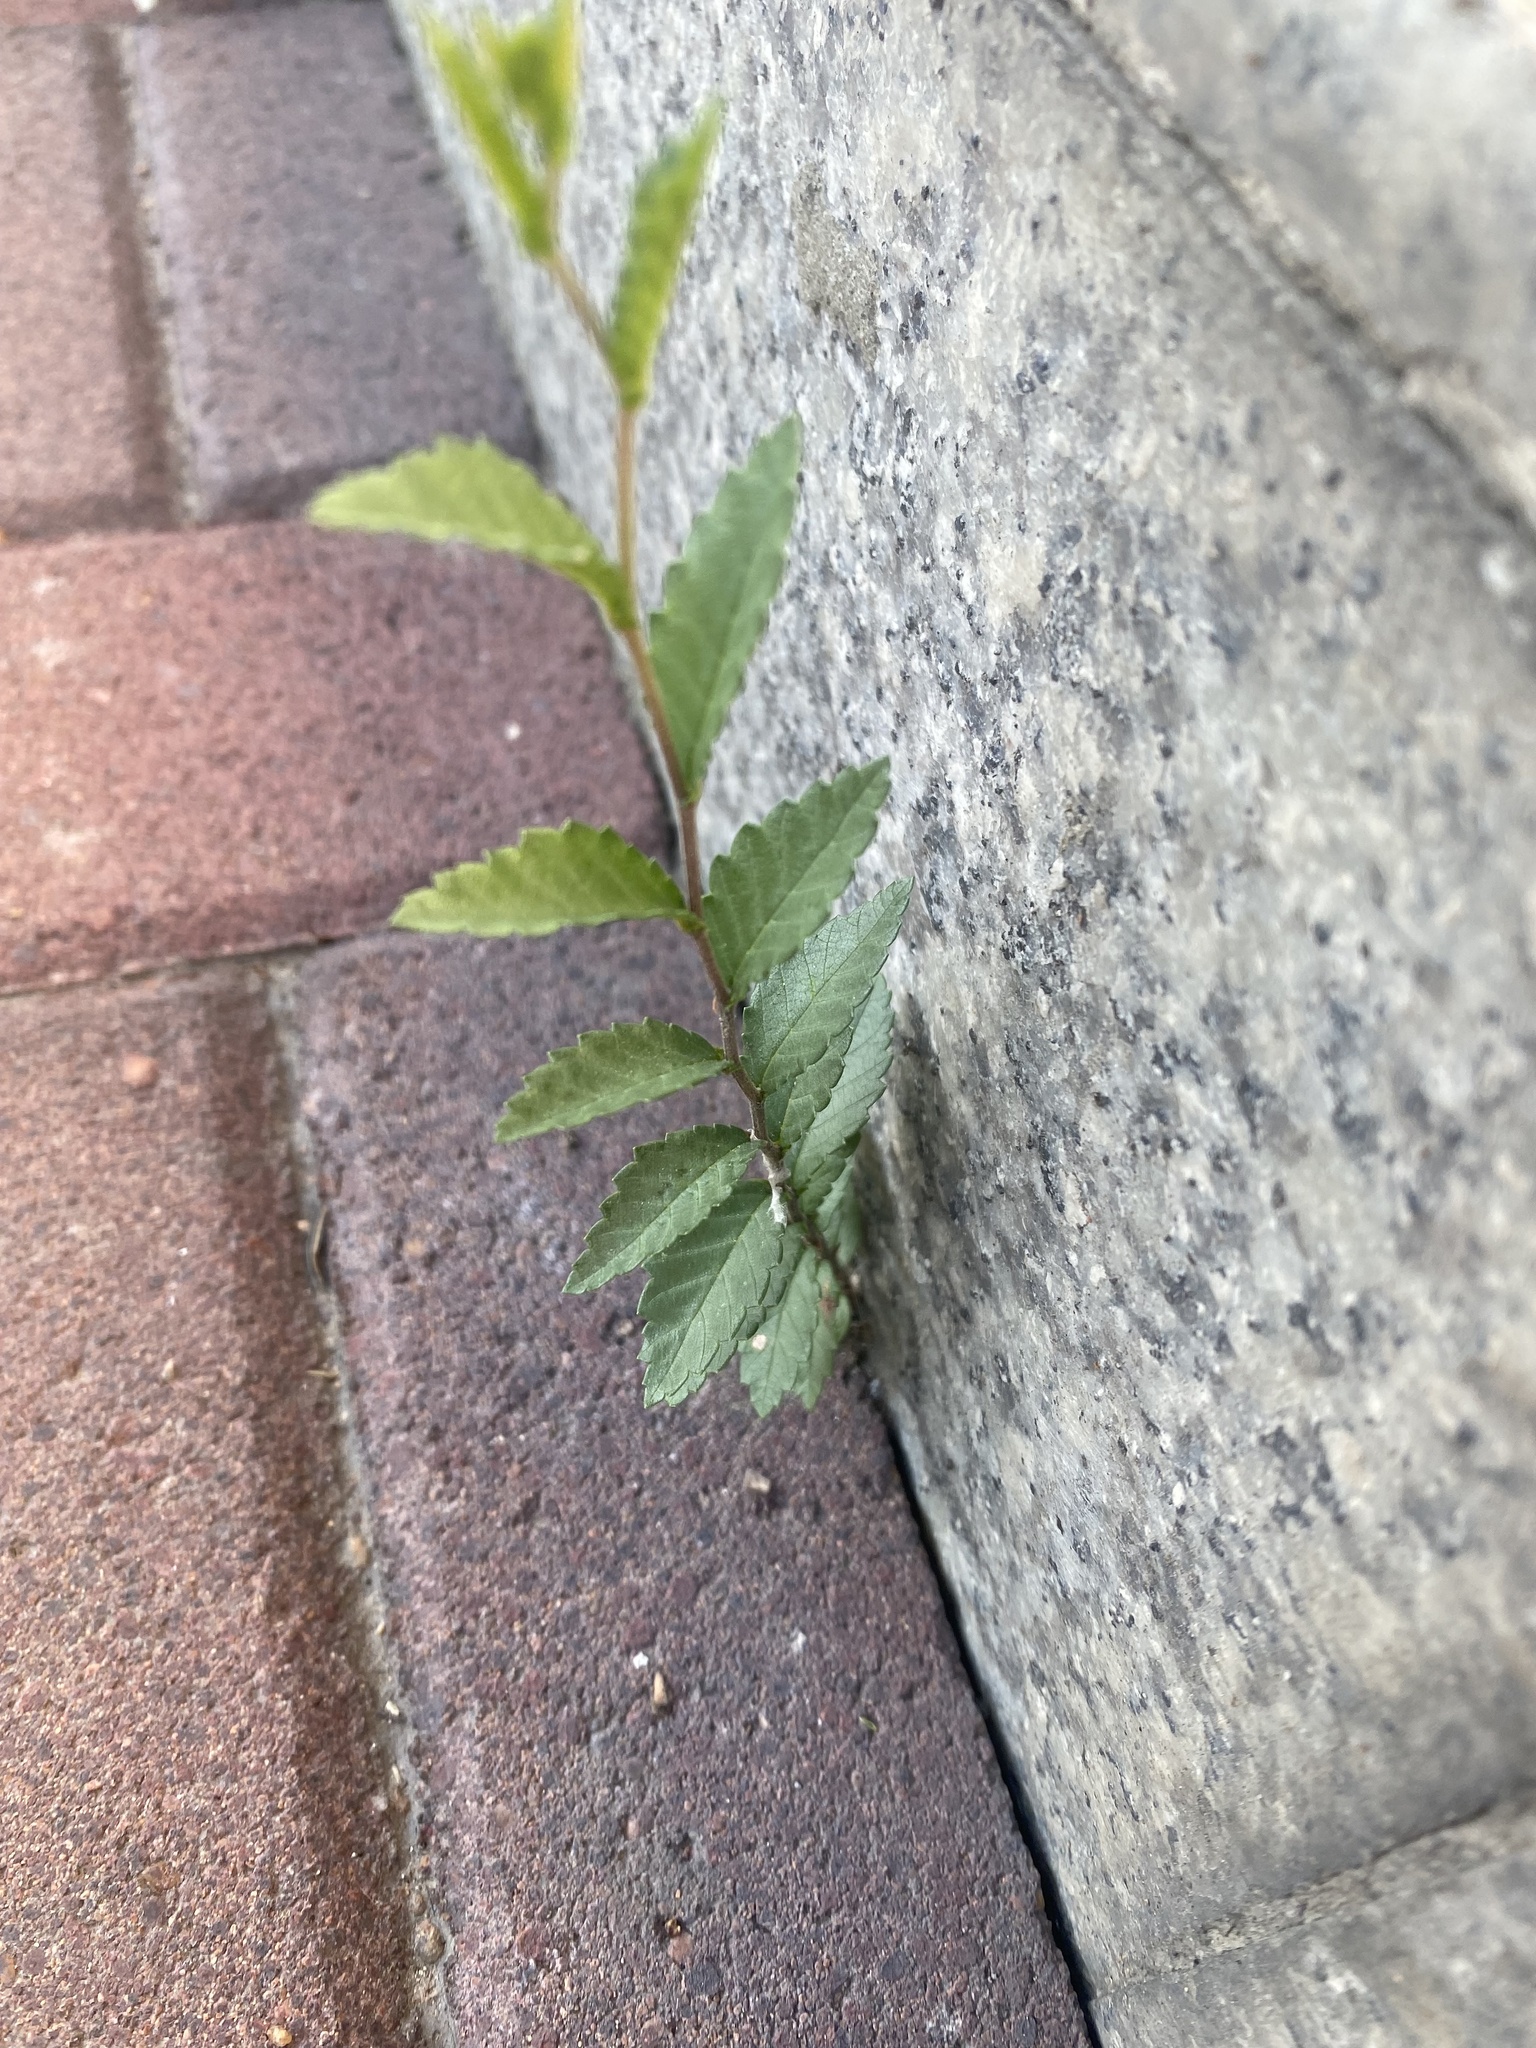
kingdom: Plantae
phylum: Tracheophyta
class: Magnoliopsida
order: Rosales
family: Ulmaceae
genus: Ulmus
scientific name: Ulmus pumila
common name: Siberian elm
